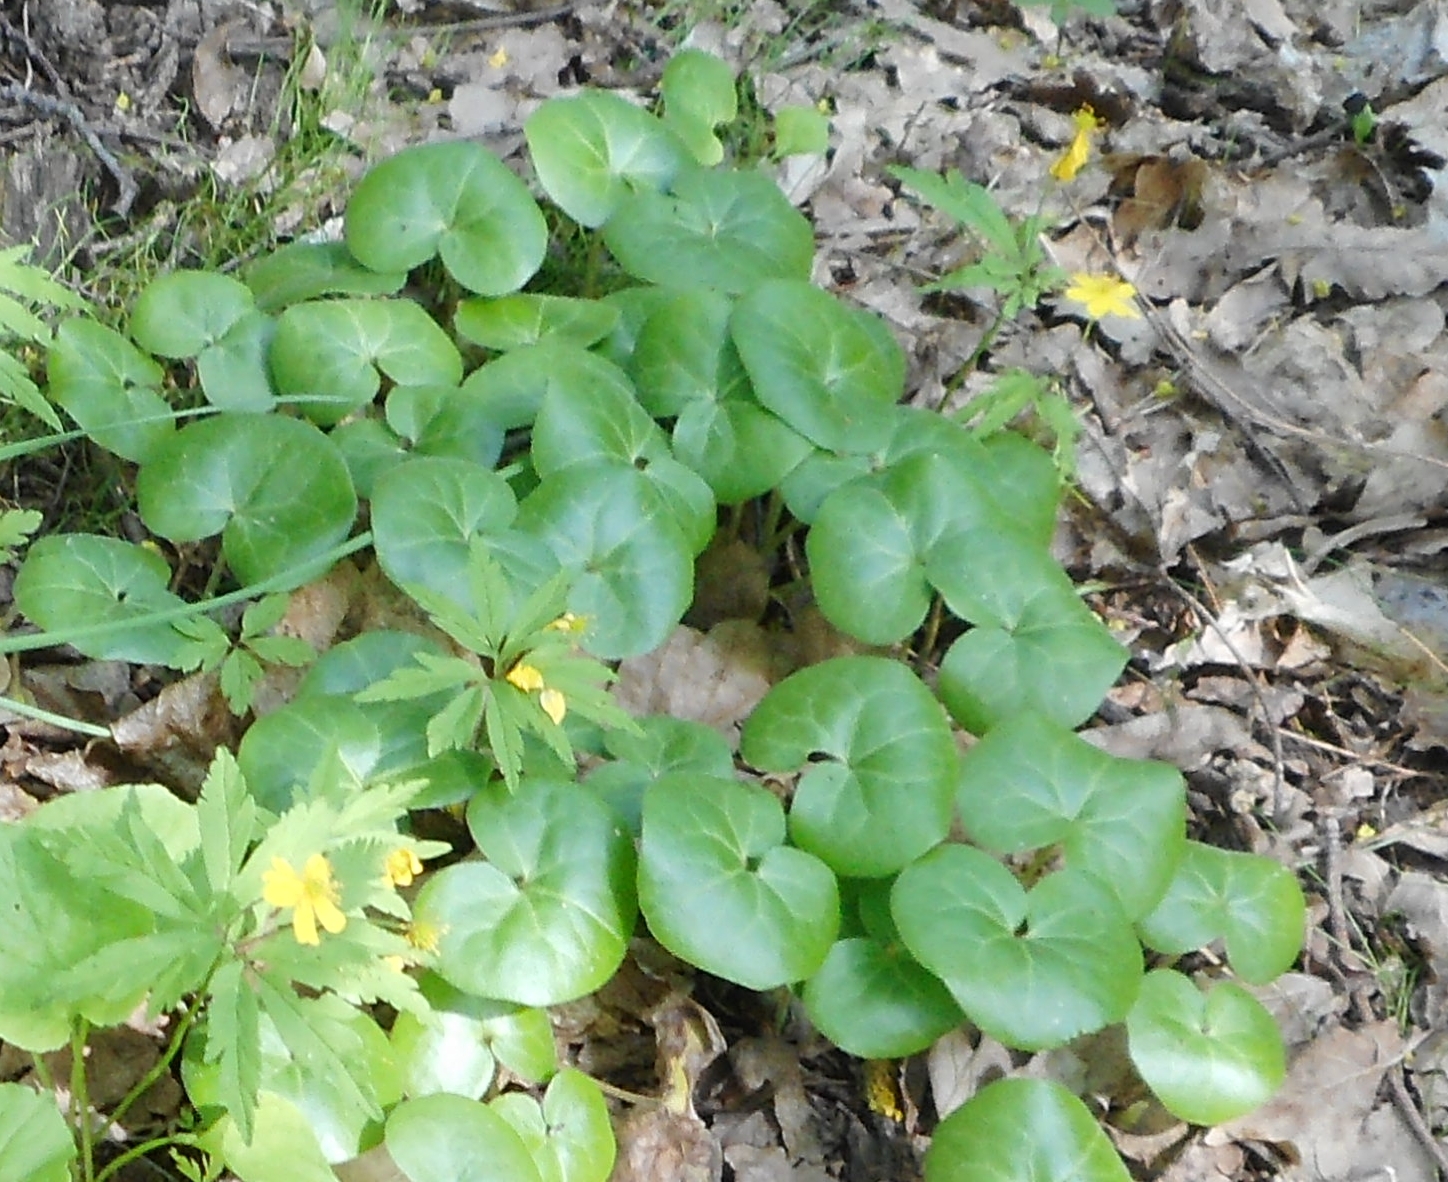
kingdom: Plantae
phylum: Tracheophyta
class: Magnoliopsida
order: Piperales
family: Aristolochiaceae
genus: Asarum
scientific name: Asarum europaeum
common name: Asarabacca
